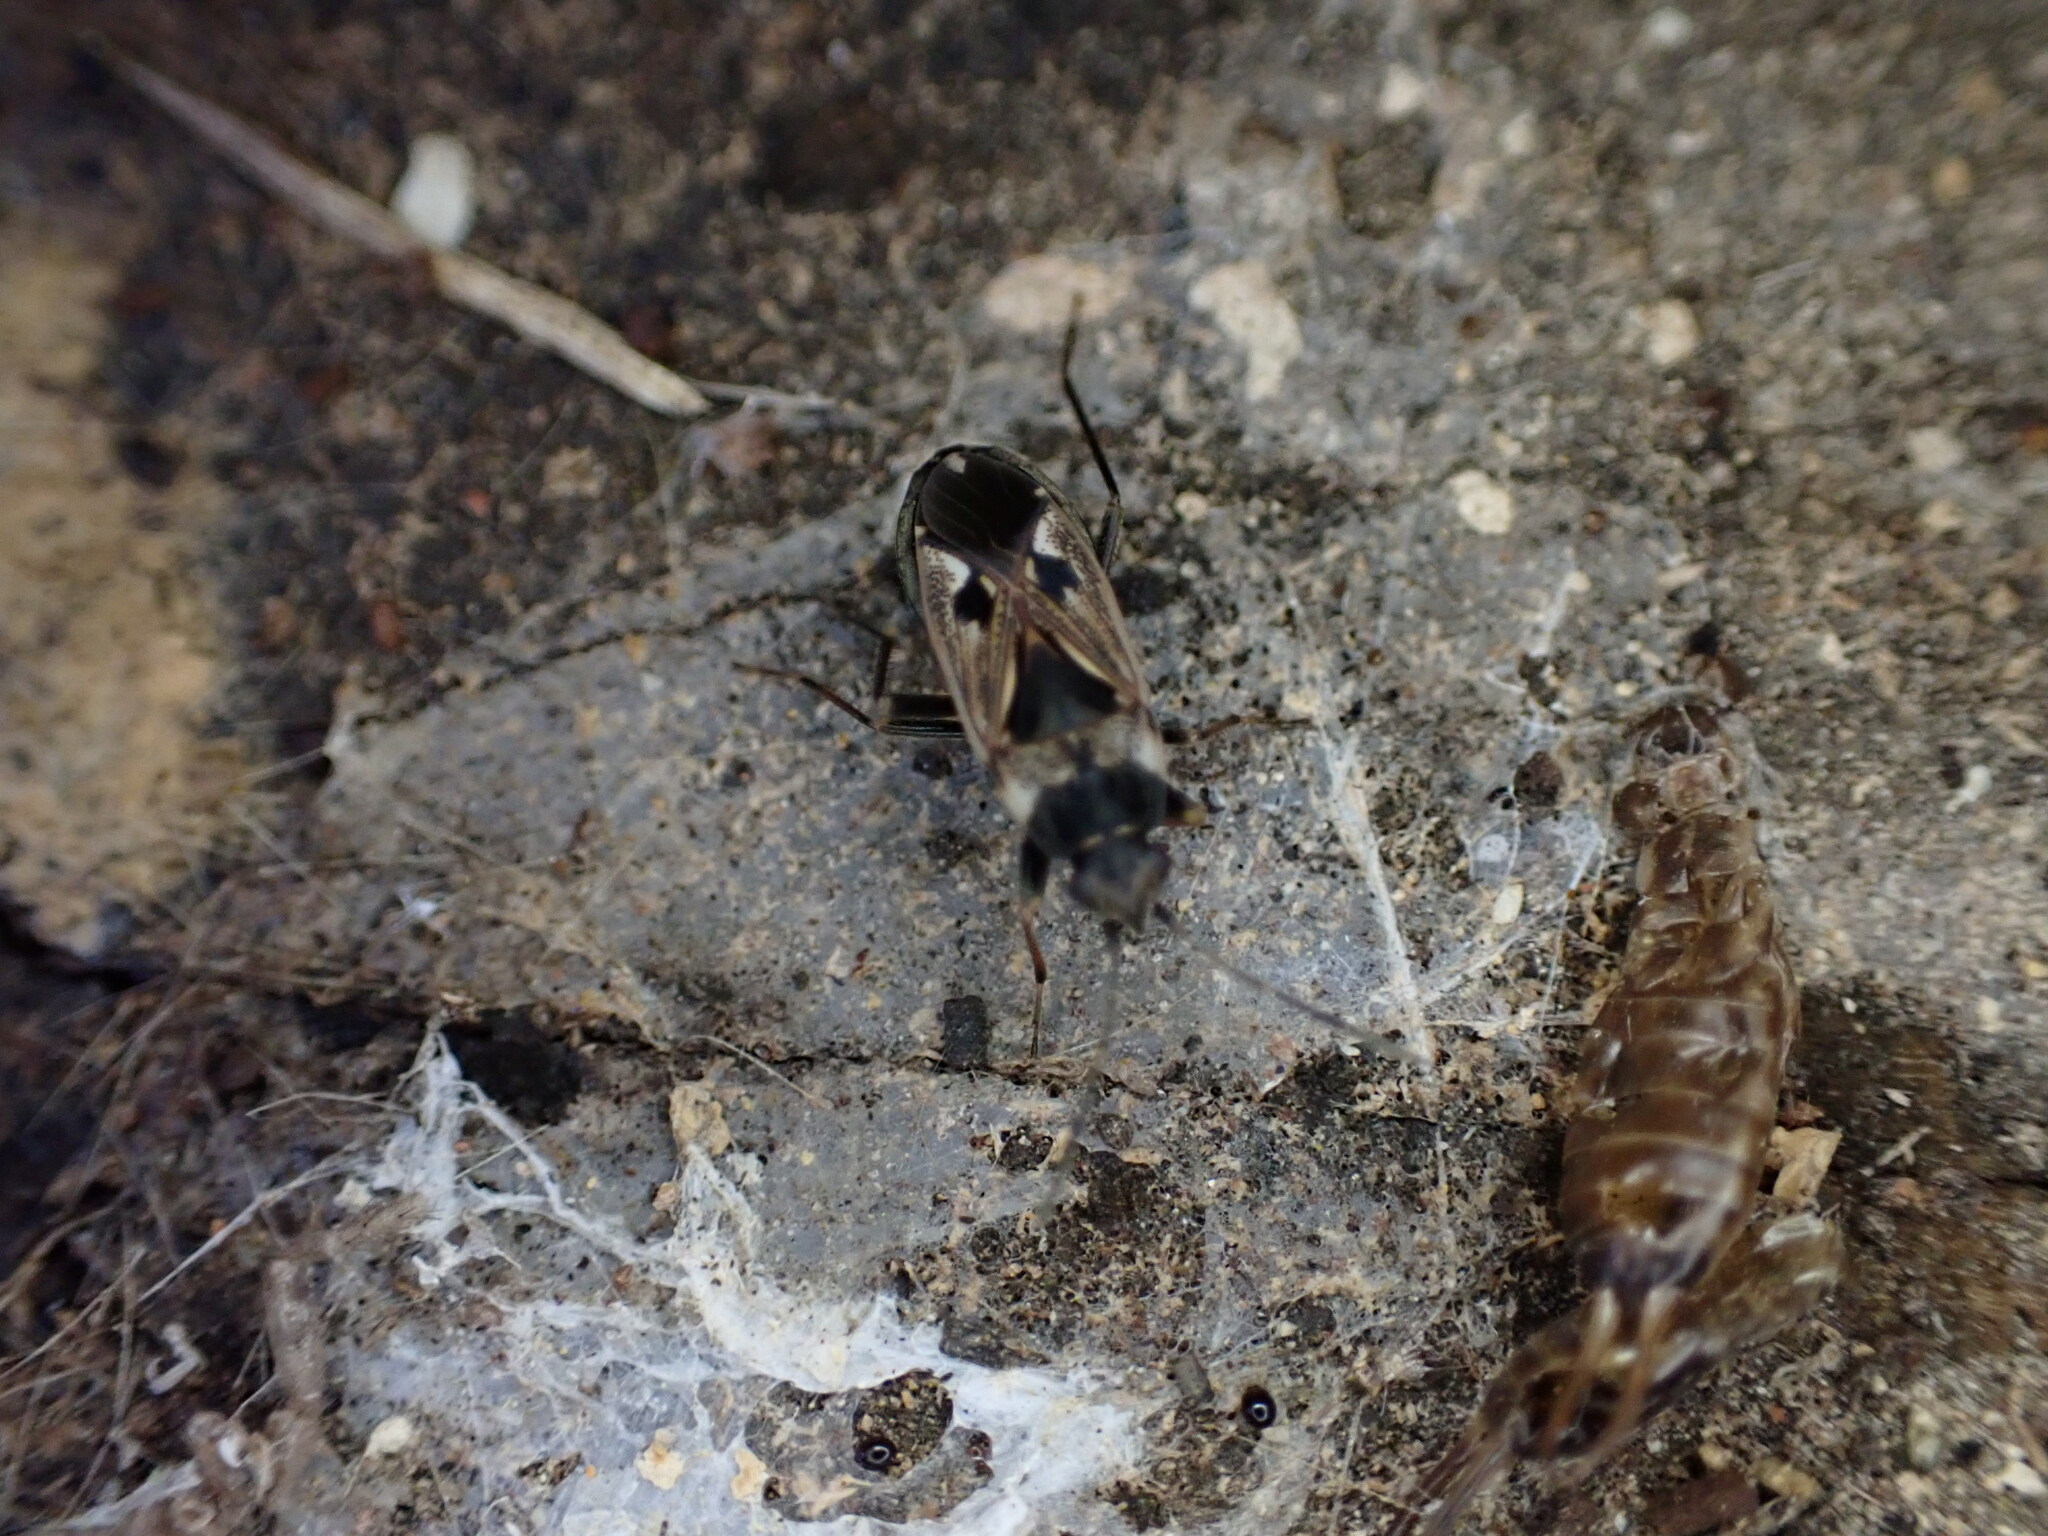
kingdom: Animalia
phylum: Arthropoda
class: Insecta
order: Hemiptera
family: Rhyparochromidae
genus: Rhyparochromus
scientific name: Rhyparochromus vulgaris
